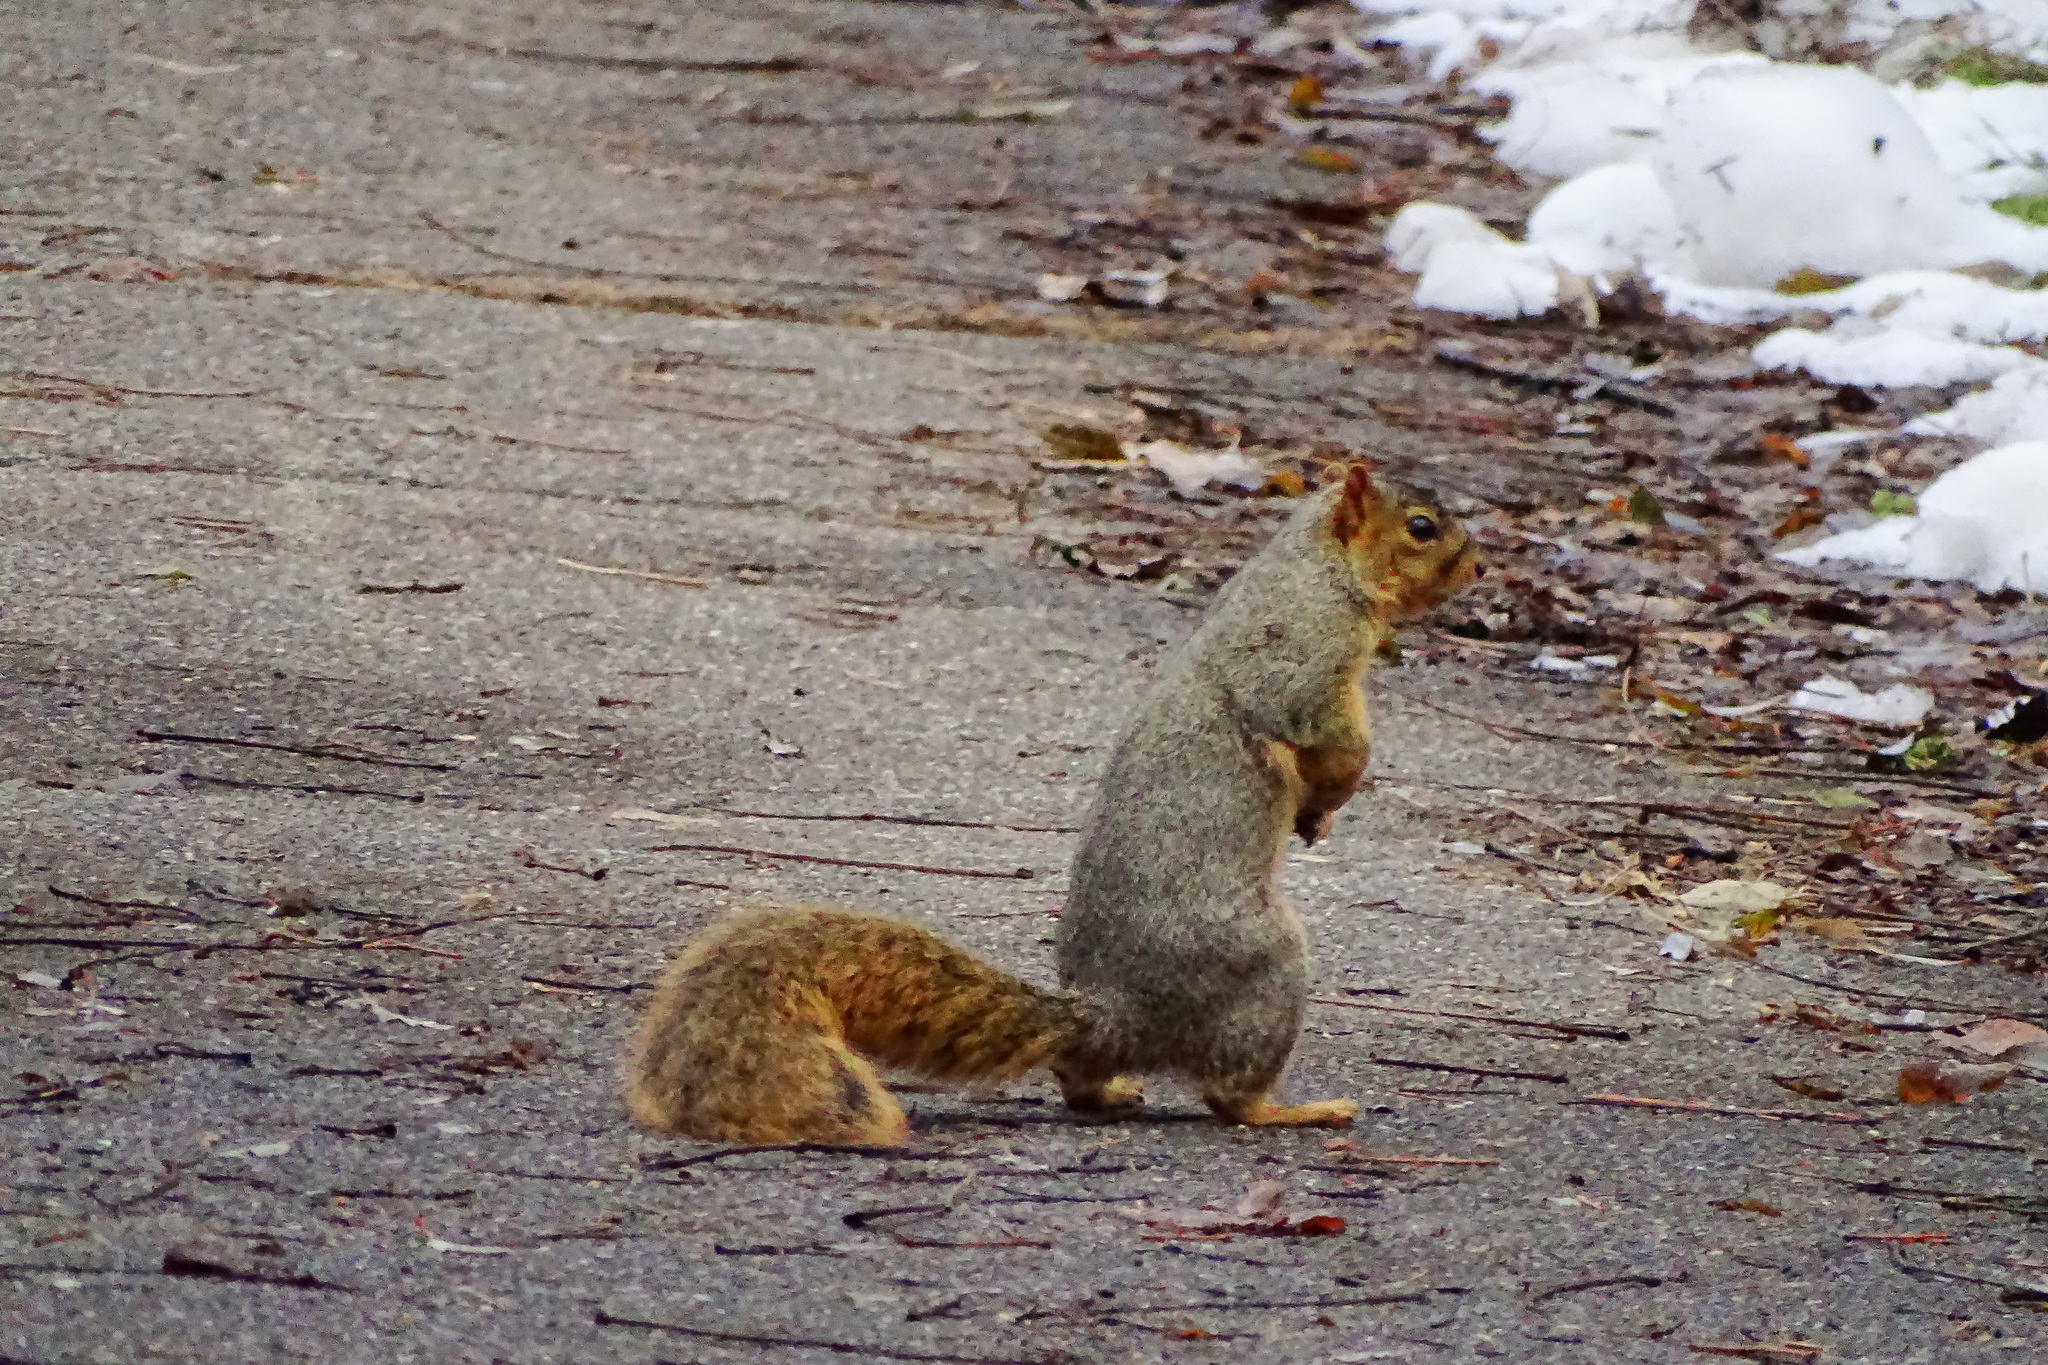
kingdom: Animalia
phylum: Chordata
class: Mammalia
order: Rodentia
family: Sciuridae
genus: Sciurus
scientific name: Sciurus niger
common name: Fox squirrel
